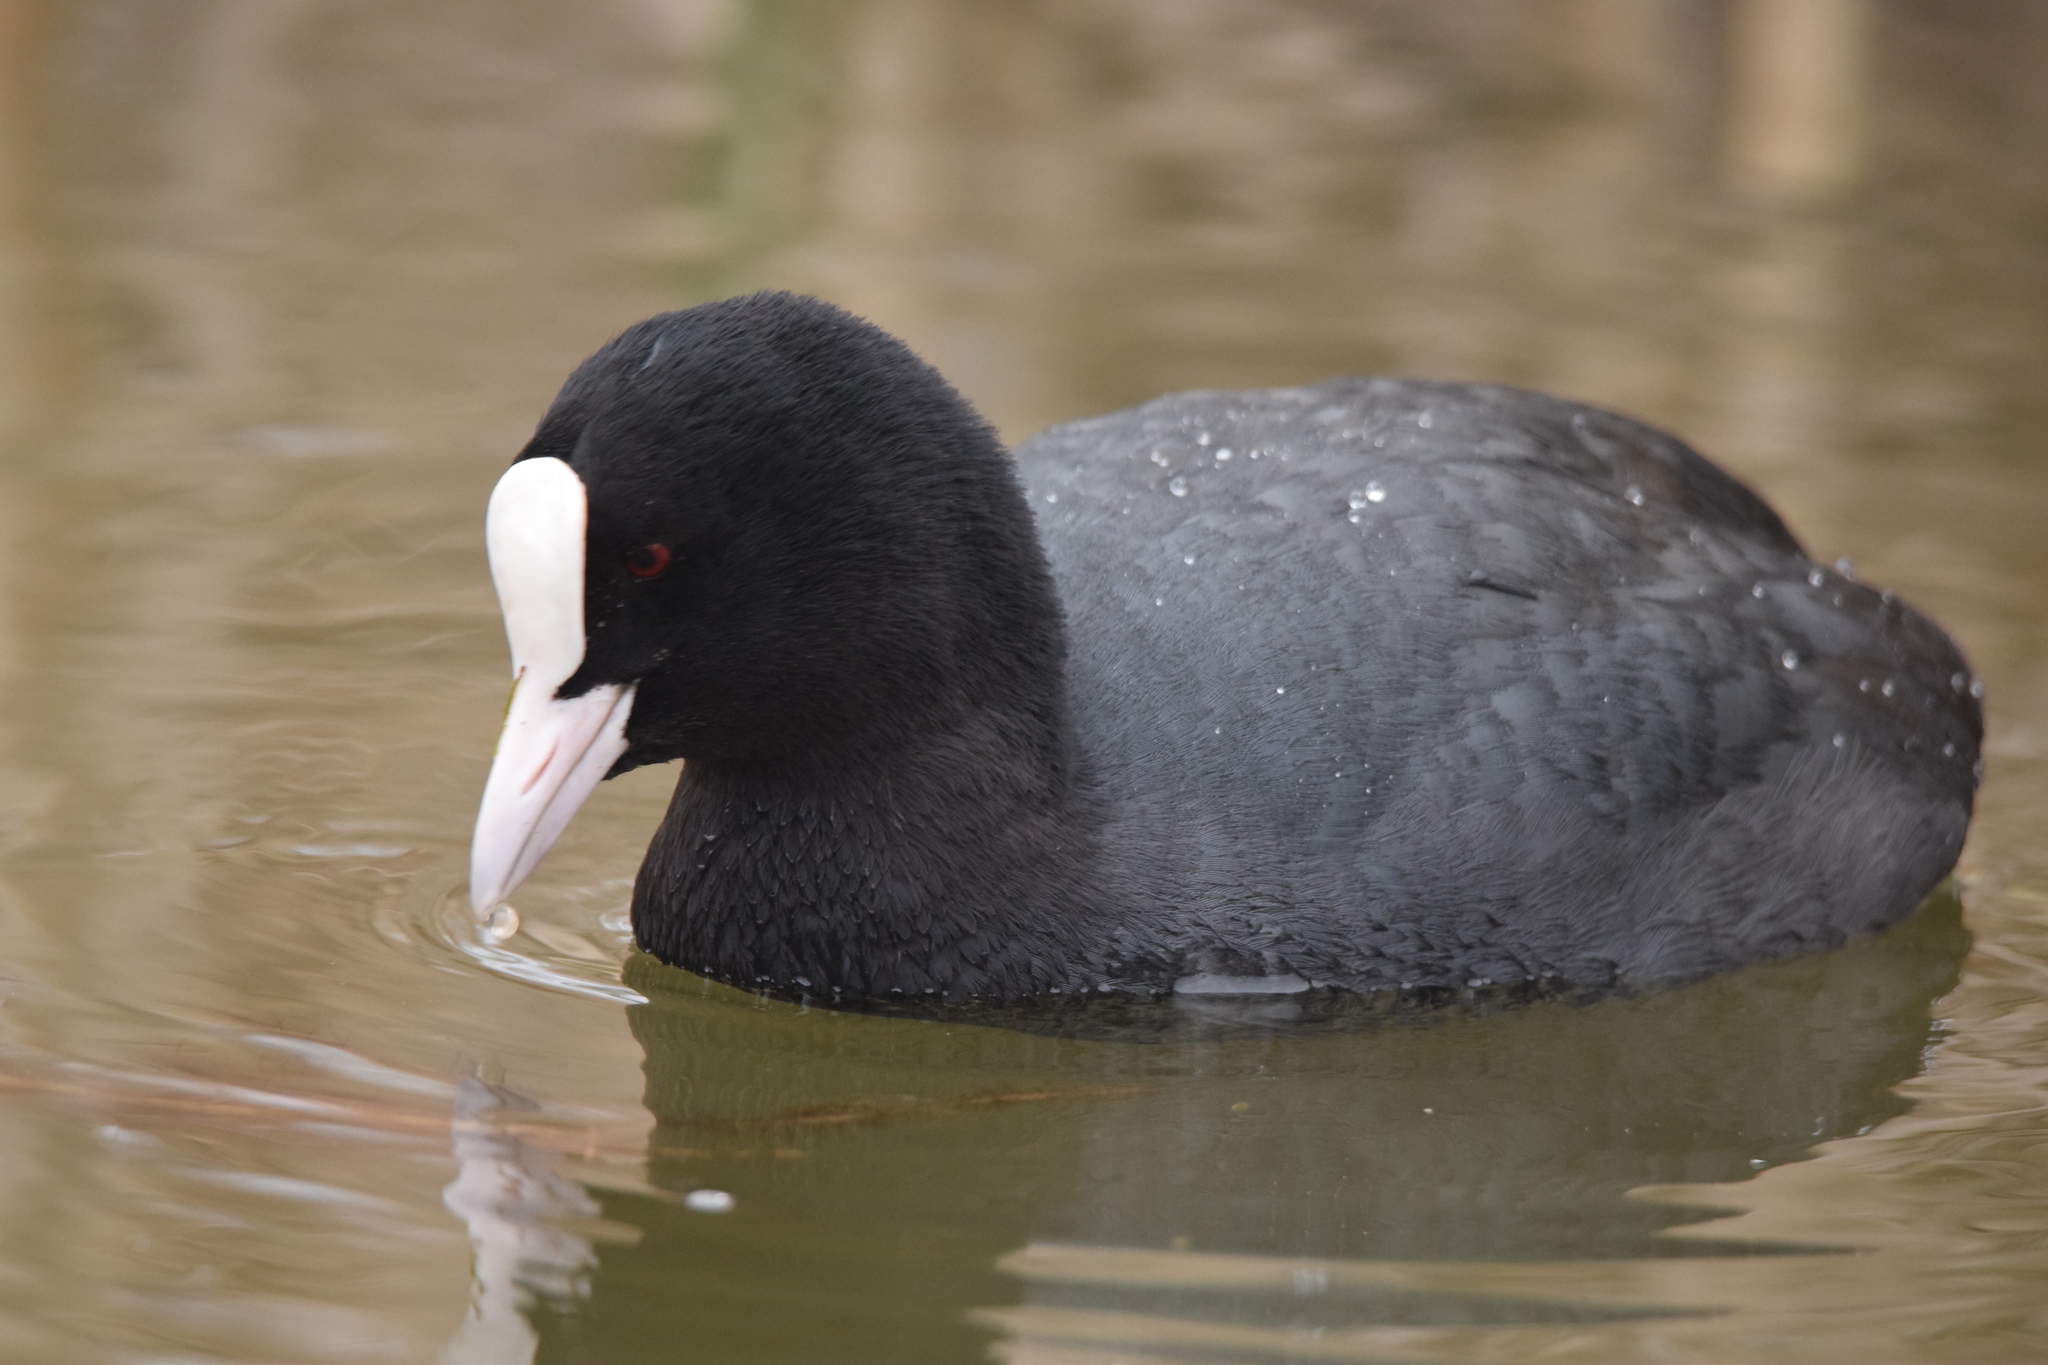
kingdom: Animalia
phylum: Chordata
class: Aves
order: Gruiformes
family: Rallidae
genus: Fulica
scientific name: Fulica atra
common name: Eurasian coot
